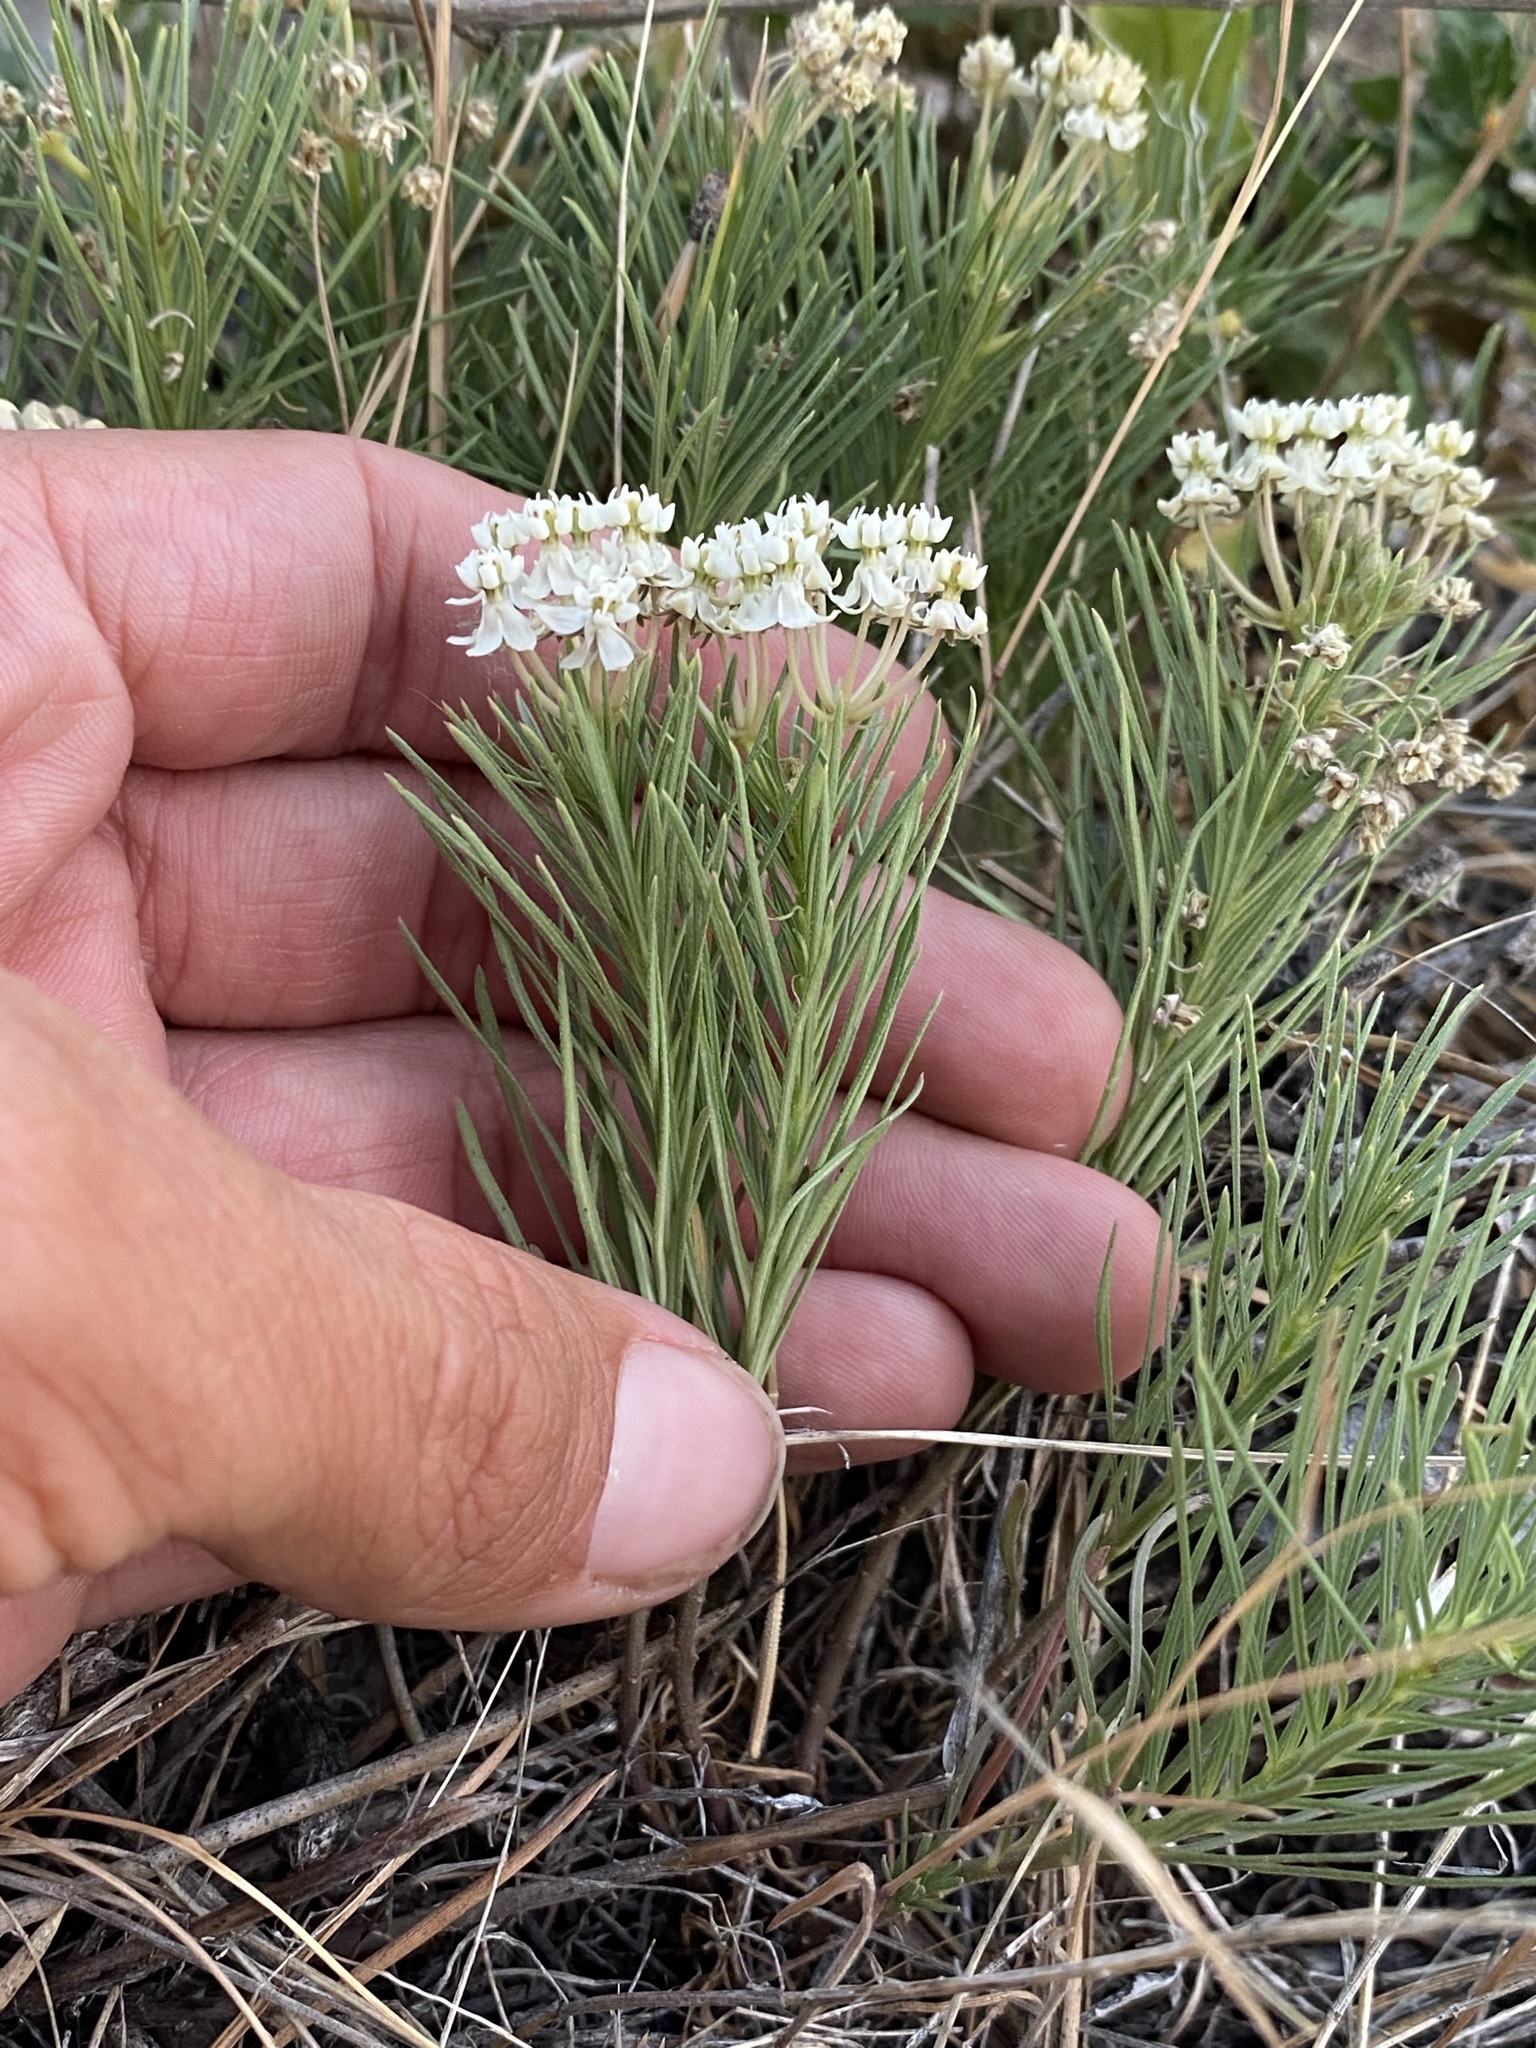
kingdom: Plantae
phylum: Tracheophyta
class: Magnoliopsida
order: Gentianales
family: Apocynaceae
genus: Asclepias
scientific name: Asclepias pumila
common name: Dwarf milkweed
